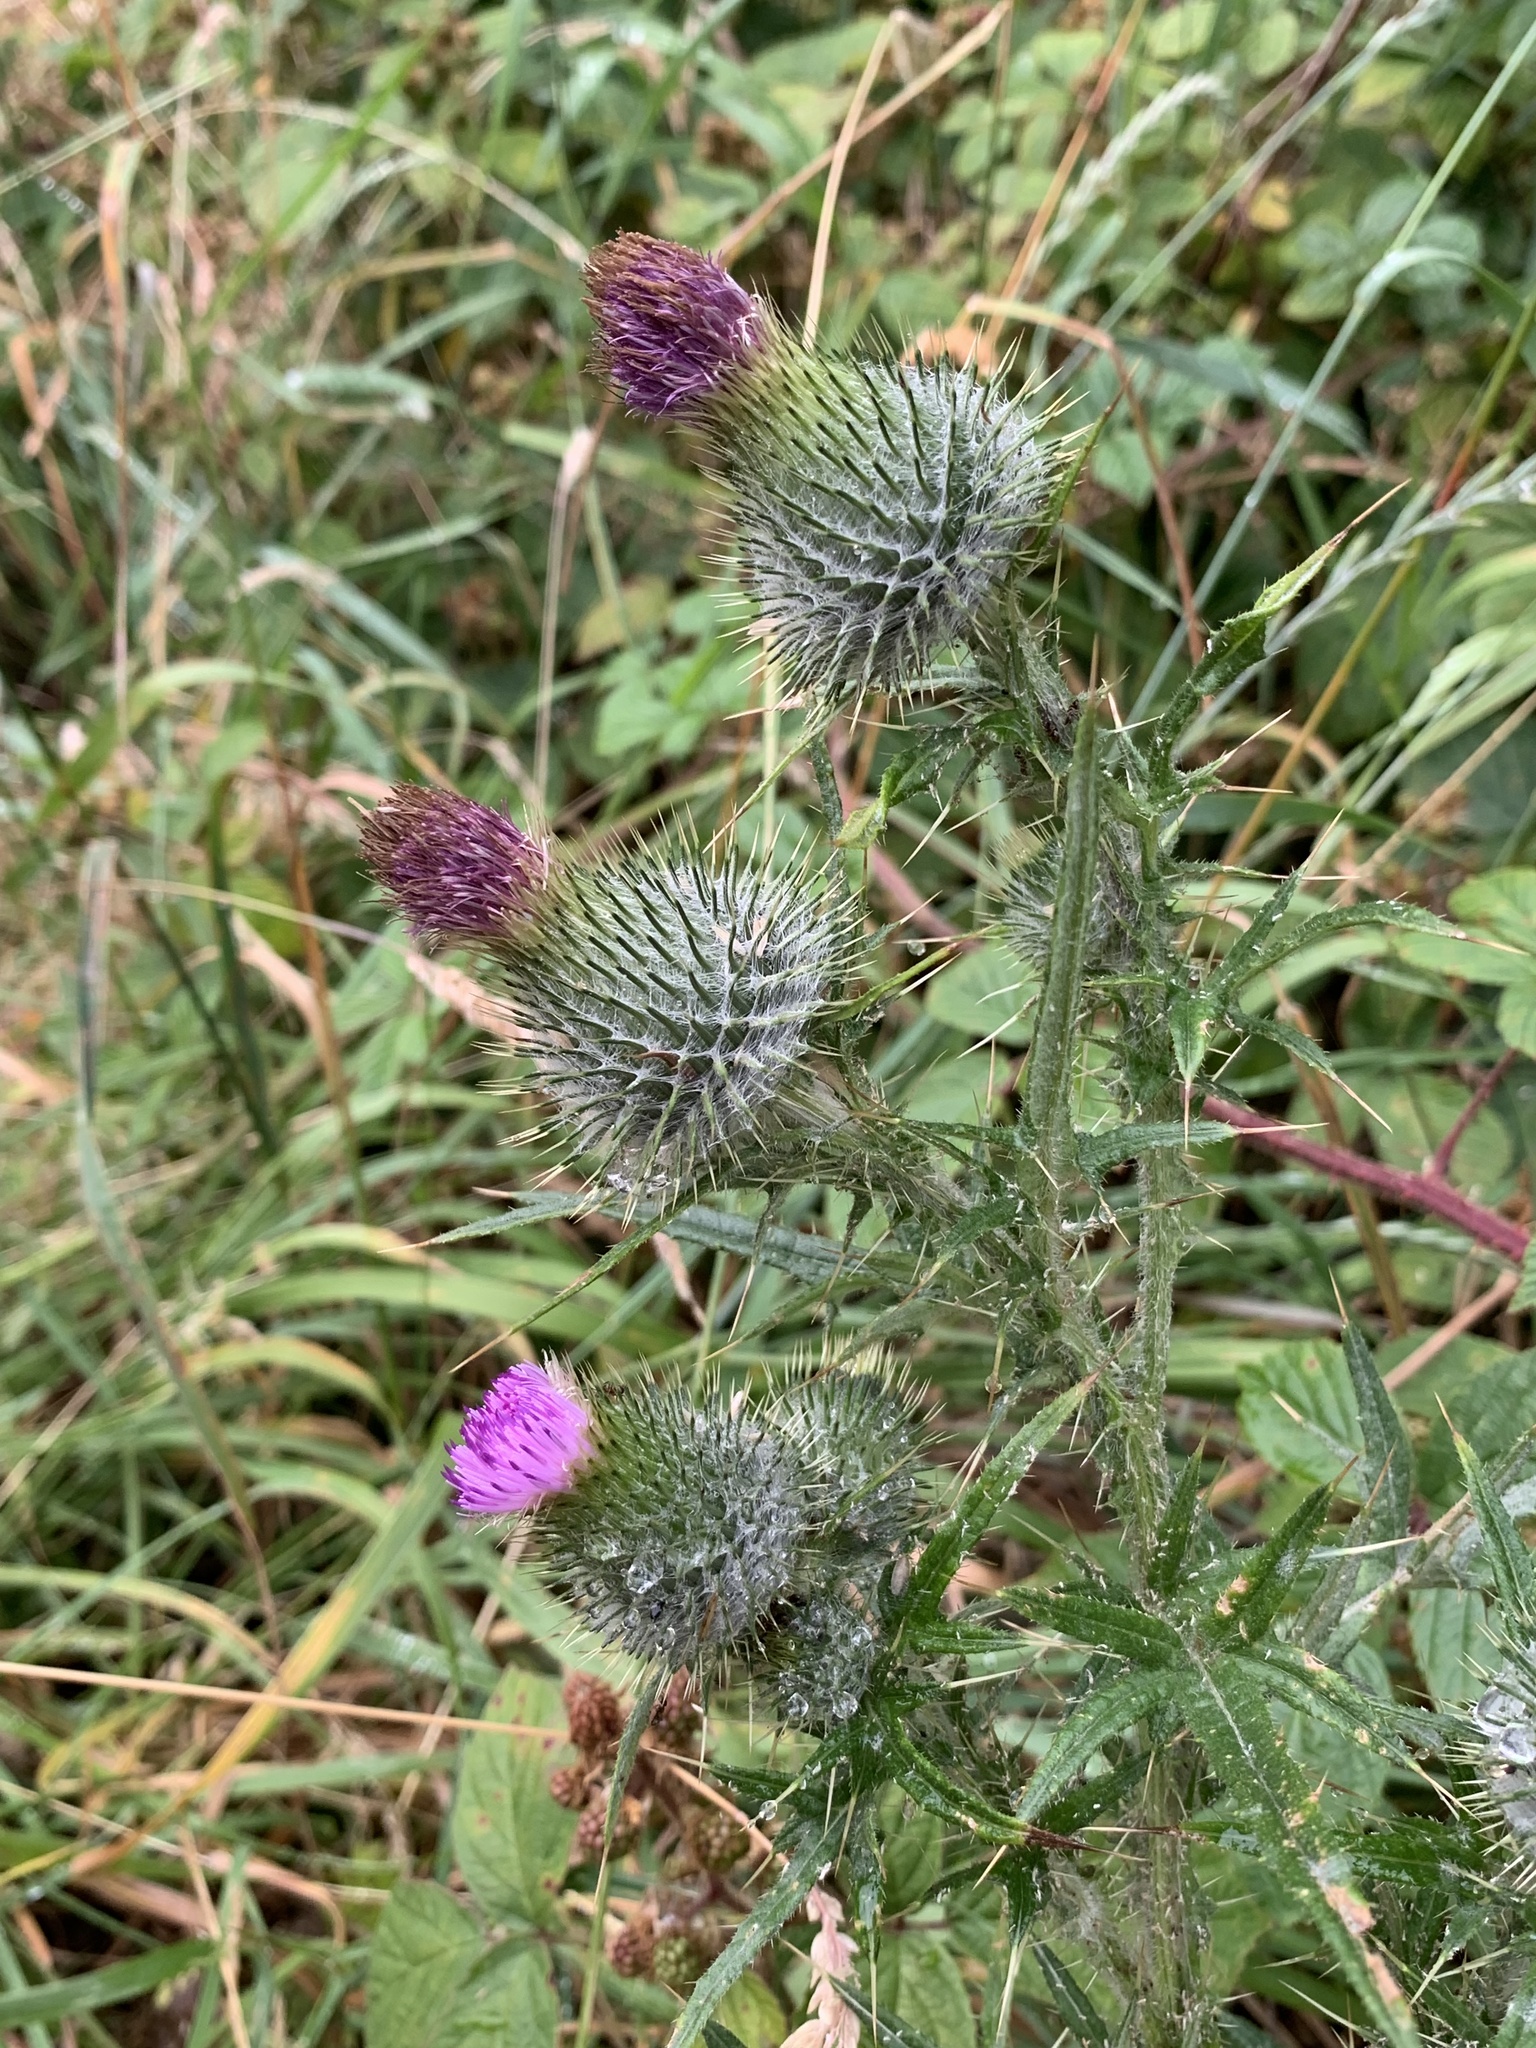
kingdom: Plantae
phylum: Tracheophyta
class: Magnoliopsida
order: Asterales
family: Asteraceae
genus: Cirsium
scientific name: Cirsium vulgare
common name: Bull thistle
